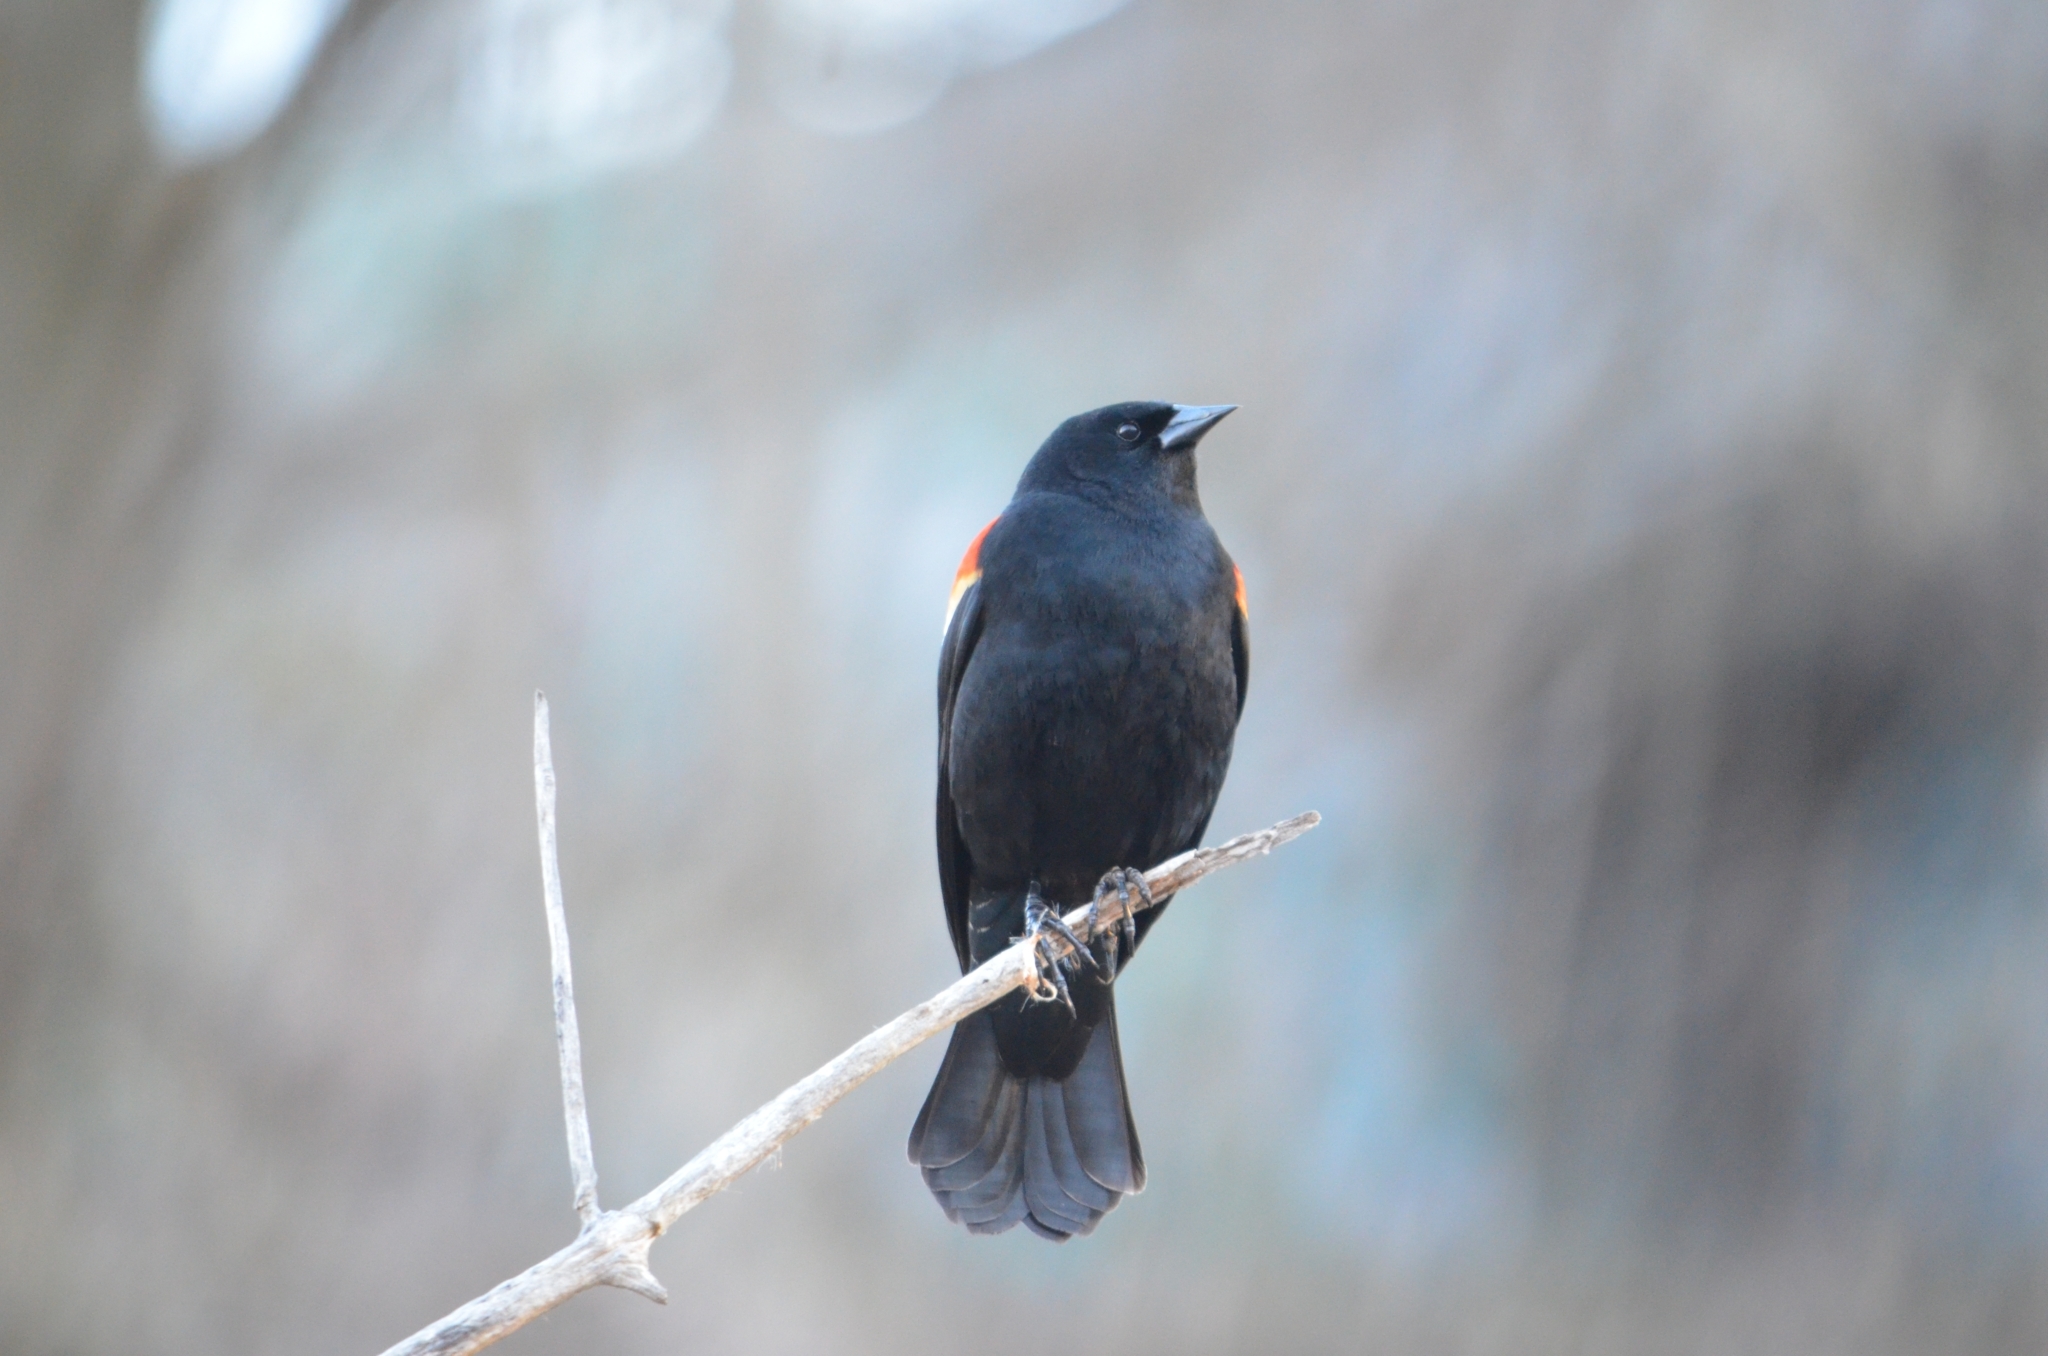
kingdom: Animalia
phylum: Chordata
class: Aves
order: Passeriformes
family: Icteridae
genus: Agelaius
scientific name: Agelaius phoeniceus
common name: Red-winged blackbird
